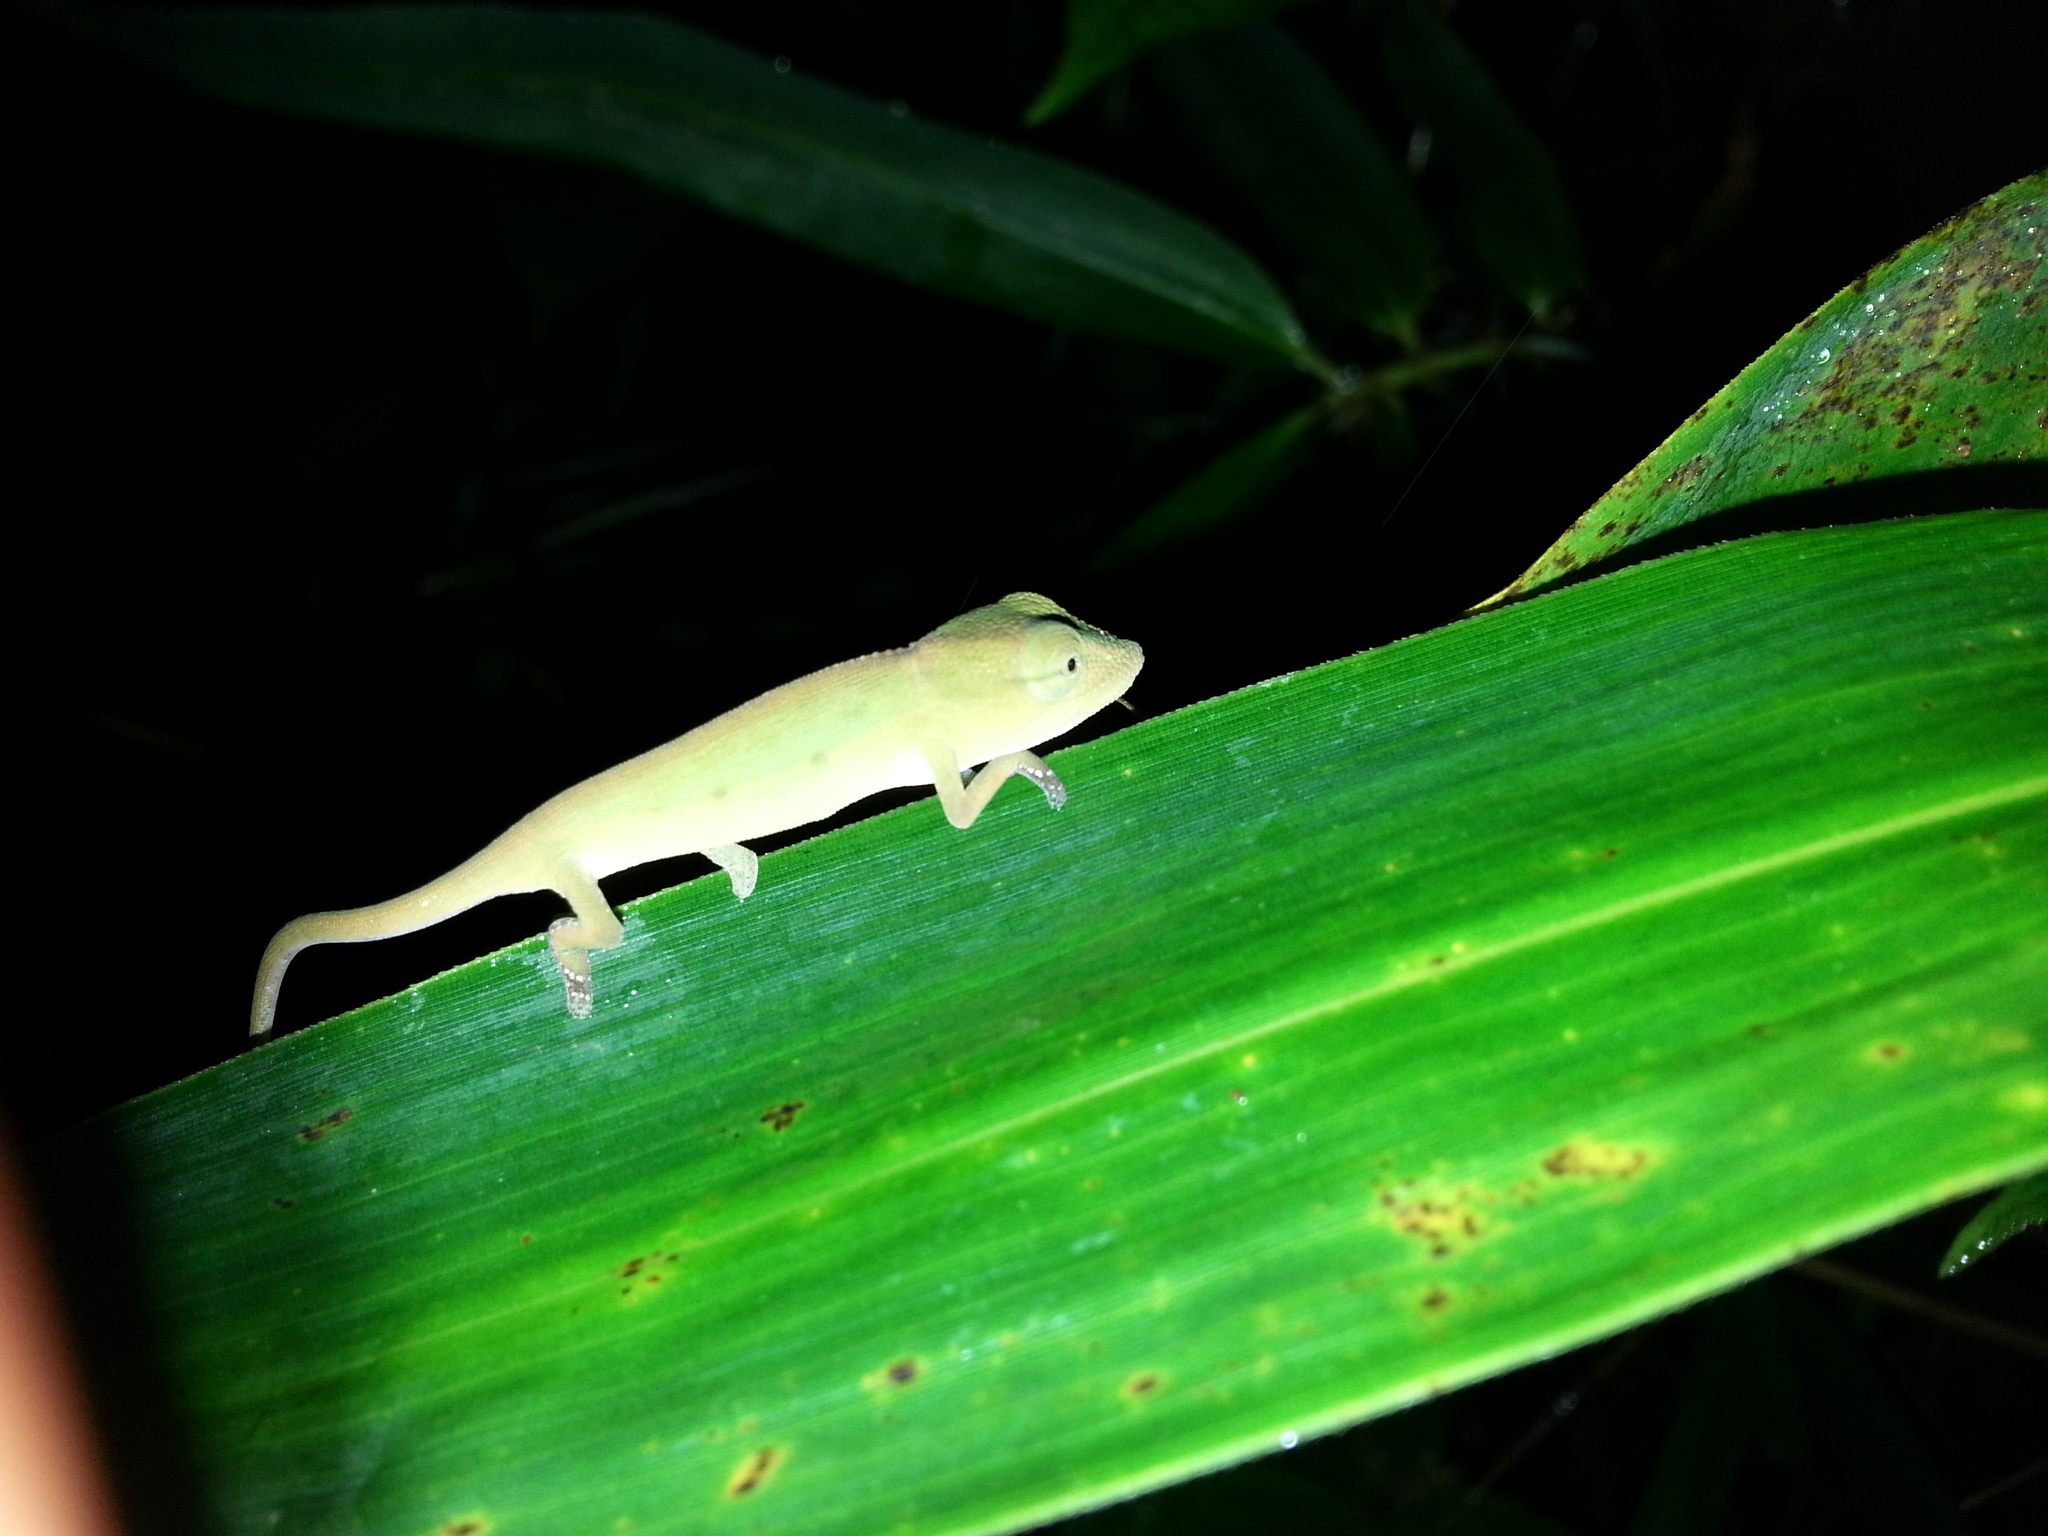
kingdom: Animalia
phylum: Chordata
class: Squamata
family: Chamaeleonidae
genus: Calumma
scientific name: Calumma gastrotaenia
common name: Short-nosed chameleon
